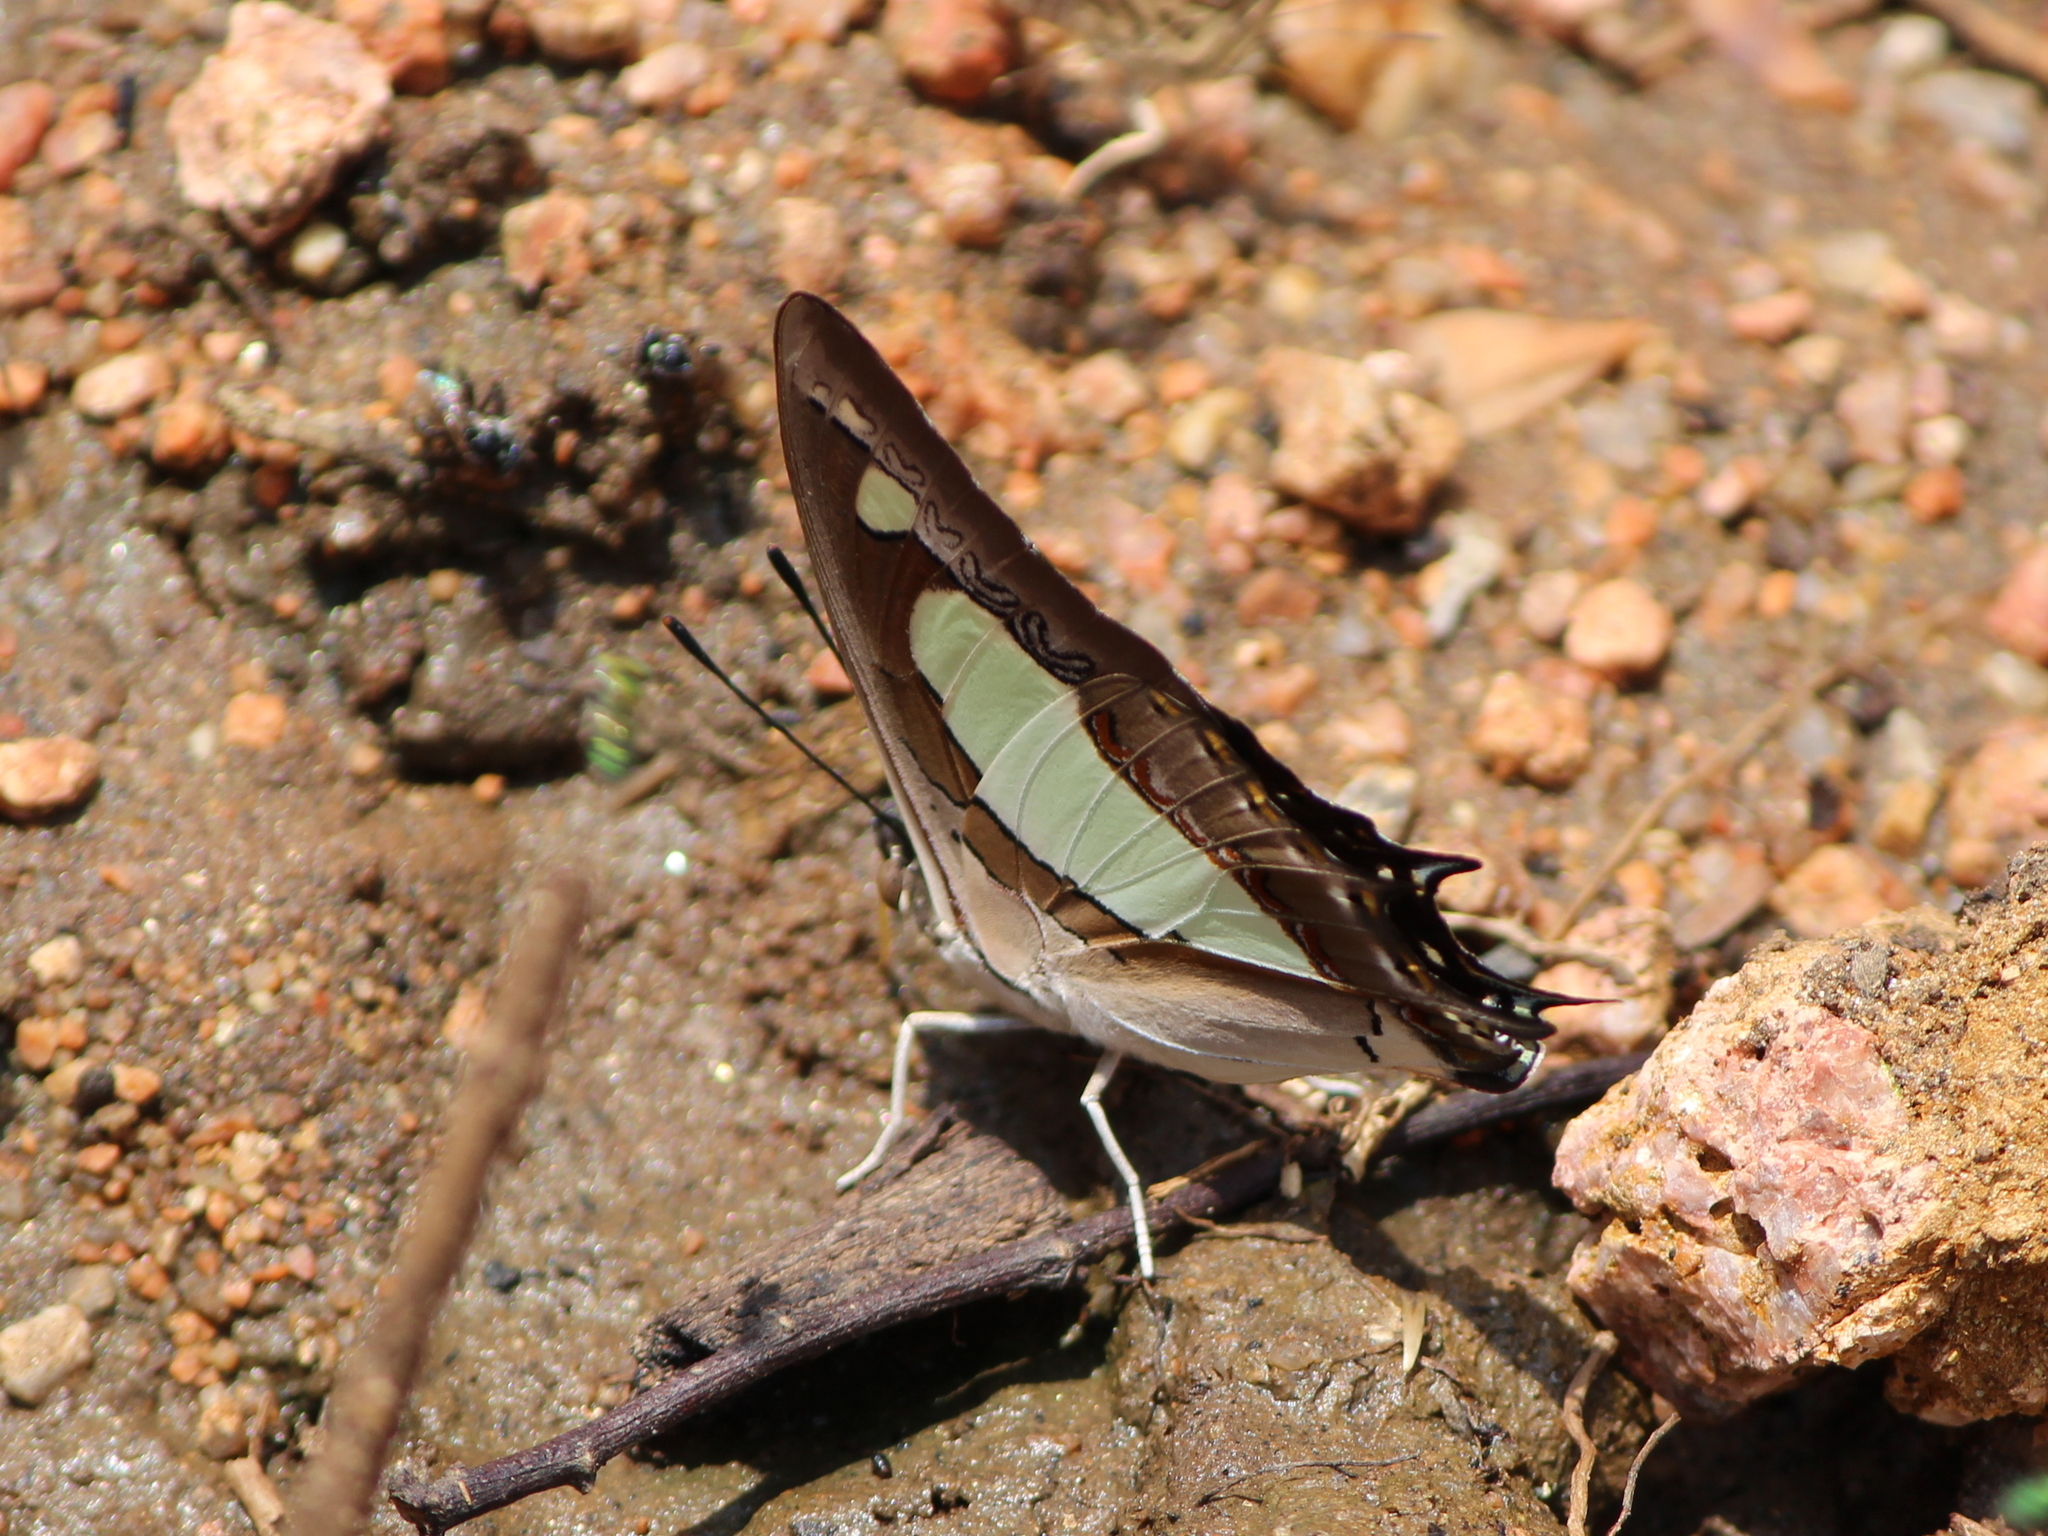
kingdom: Animalia
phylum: Arthropoda
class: Insecta
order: Lepidoptera
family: Nymphalidae
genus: Polyura
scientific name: Polyura agrarius
